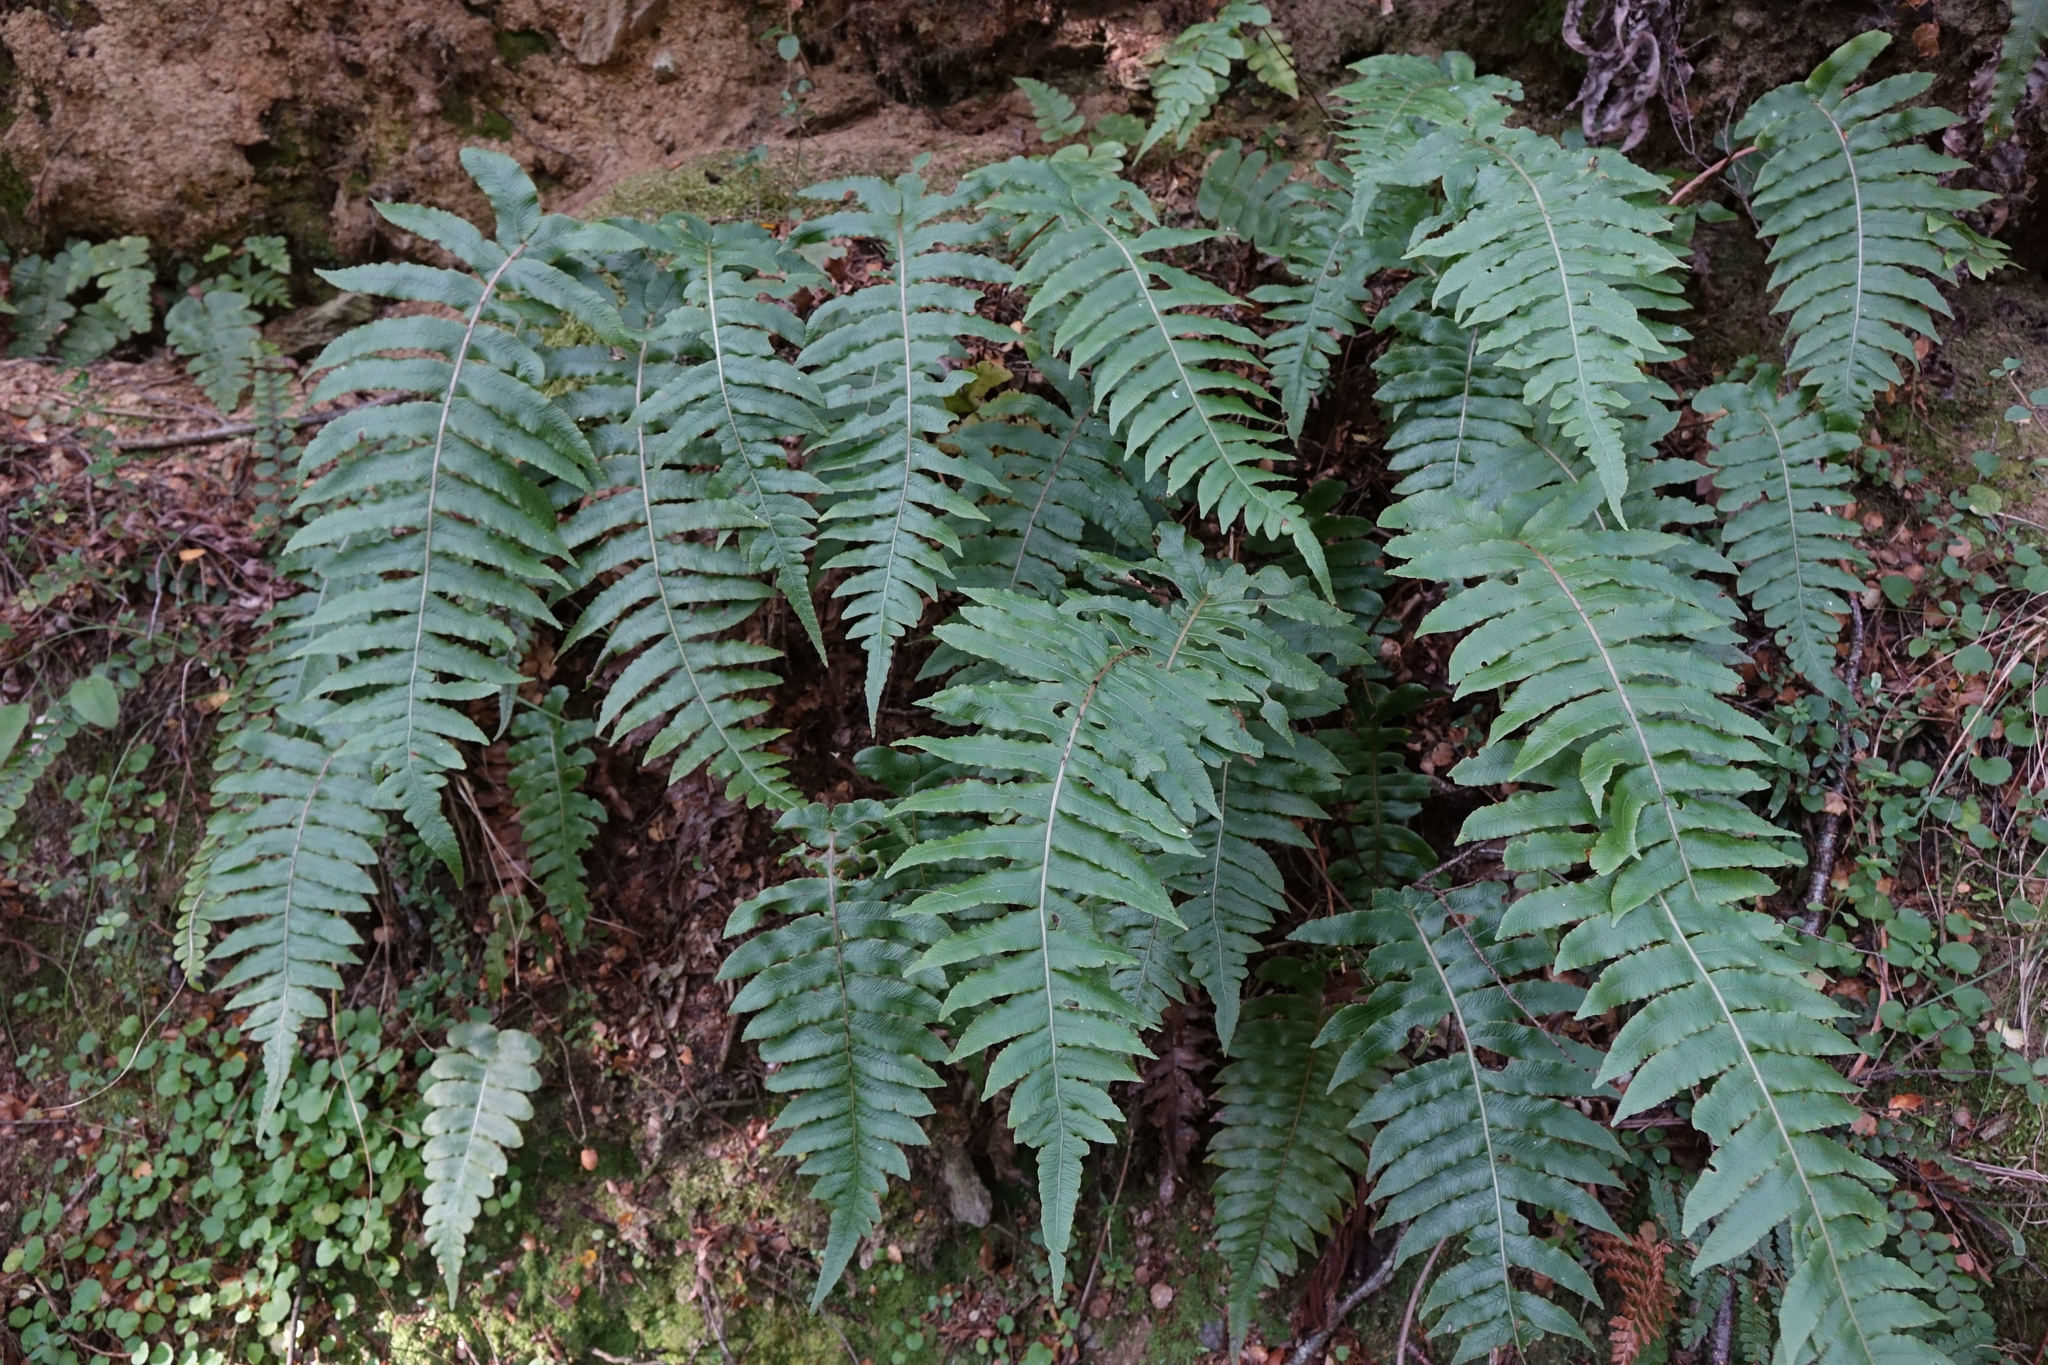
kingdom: Plantae
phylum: Tracheophyta
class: Polypodiopsida
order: Polypodiales
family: Blechnaceae
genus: Cranfillia
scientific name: Cranfillia vulcanica
